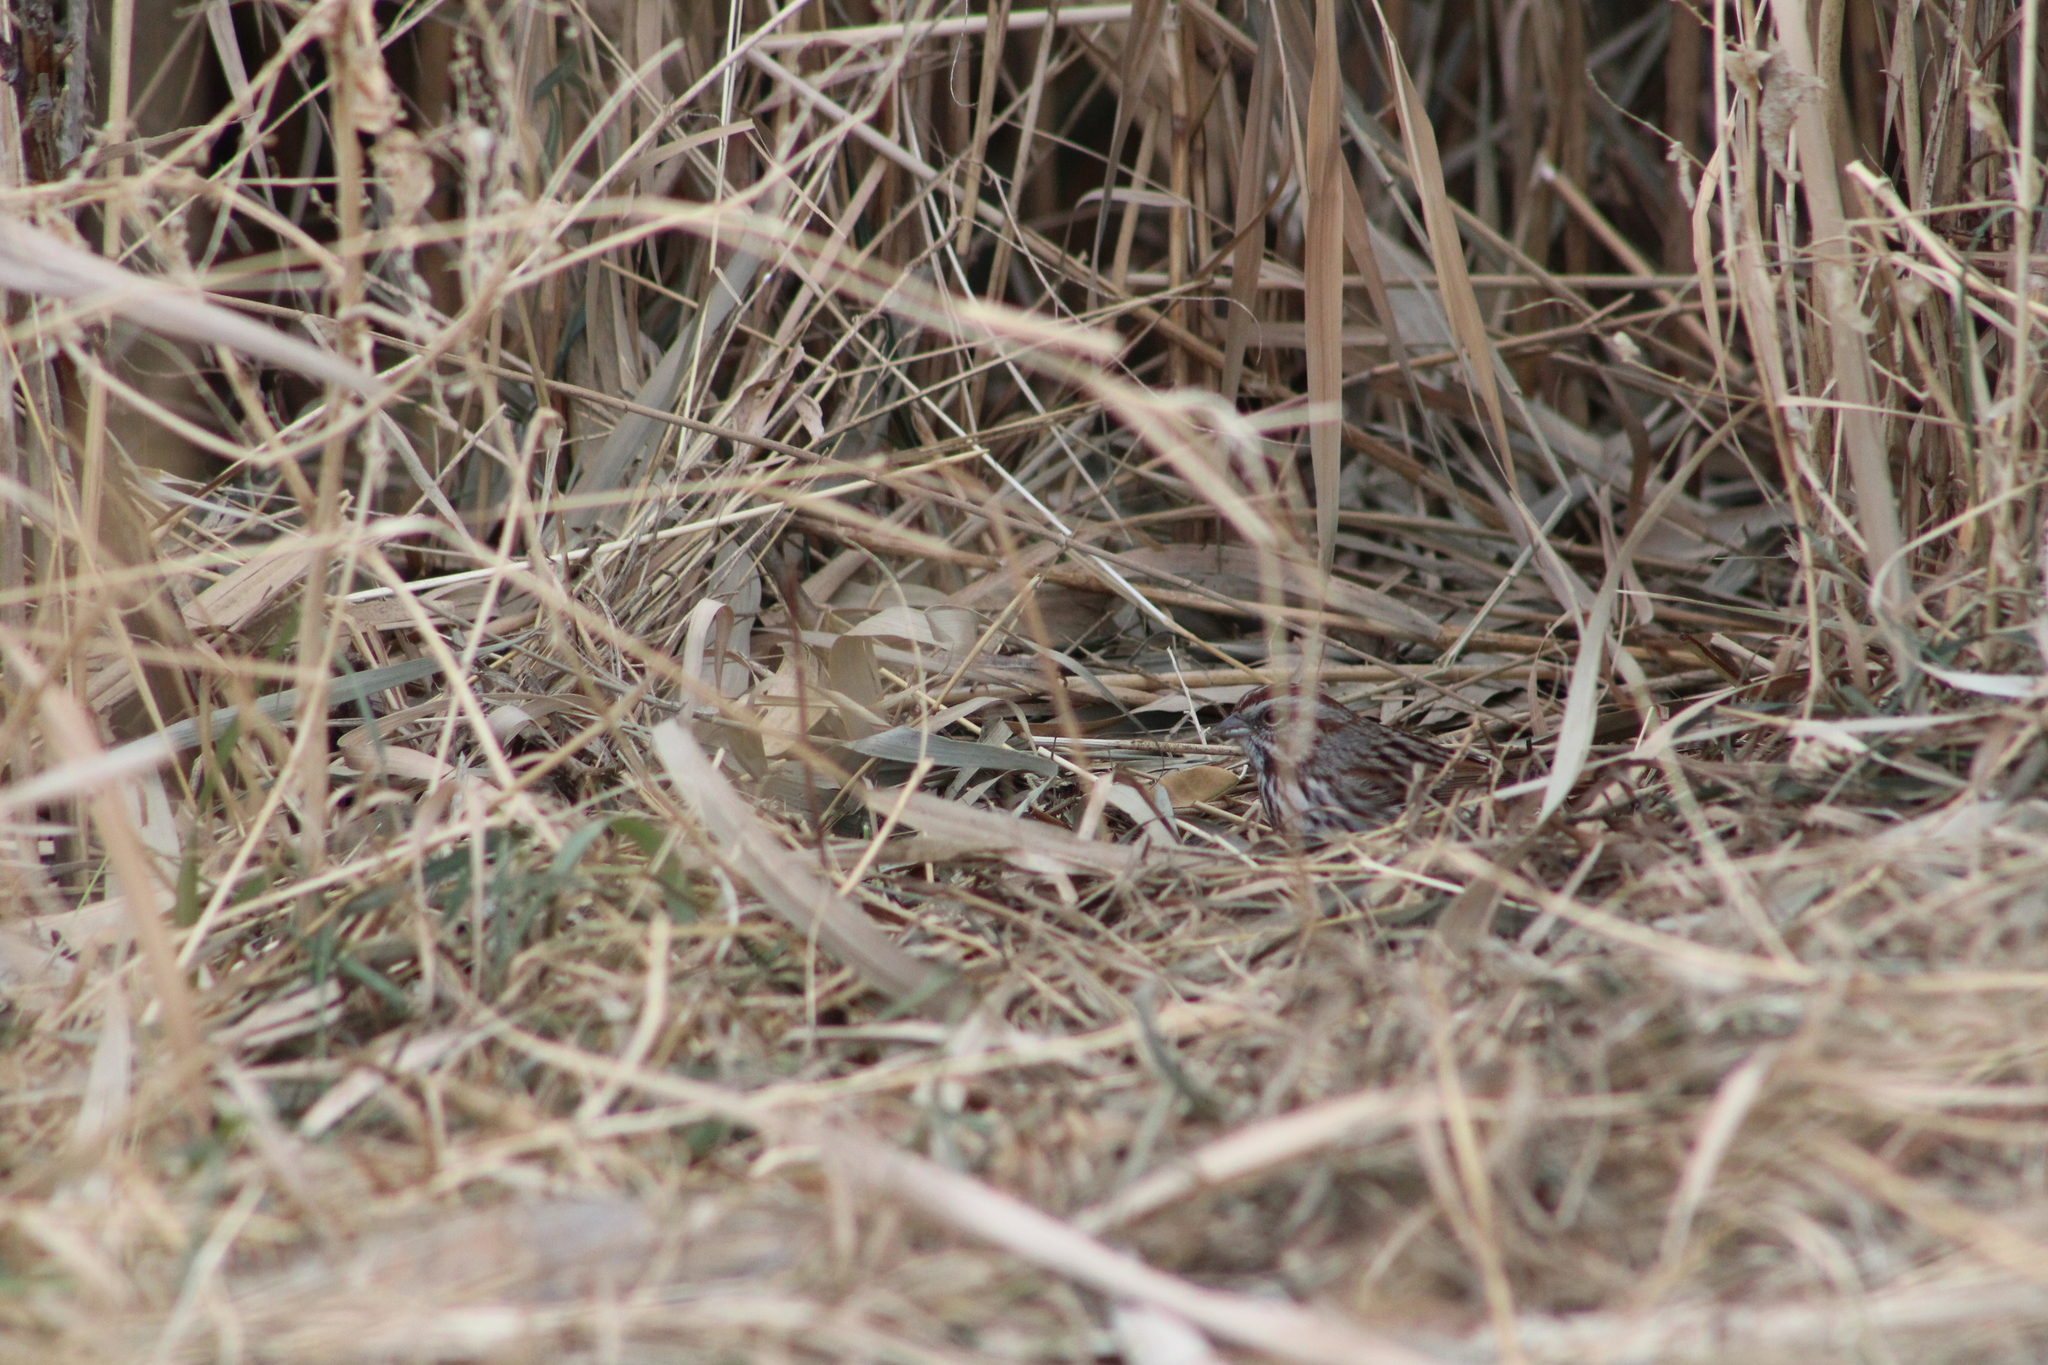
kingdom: Animalia
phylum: Chordata
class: Aves
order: Passeriformes
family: Passerellidae
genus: Melospiza
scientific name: Melospiza melodia
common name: Song sparrow
